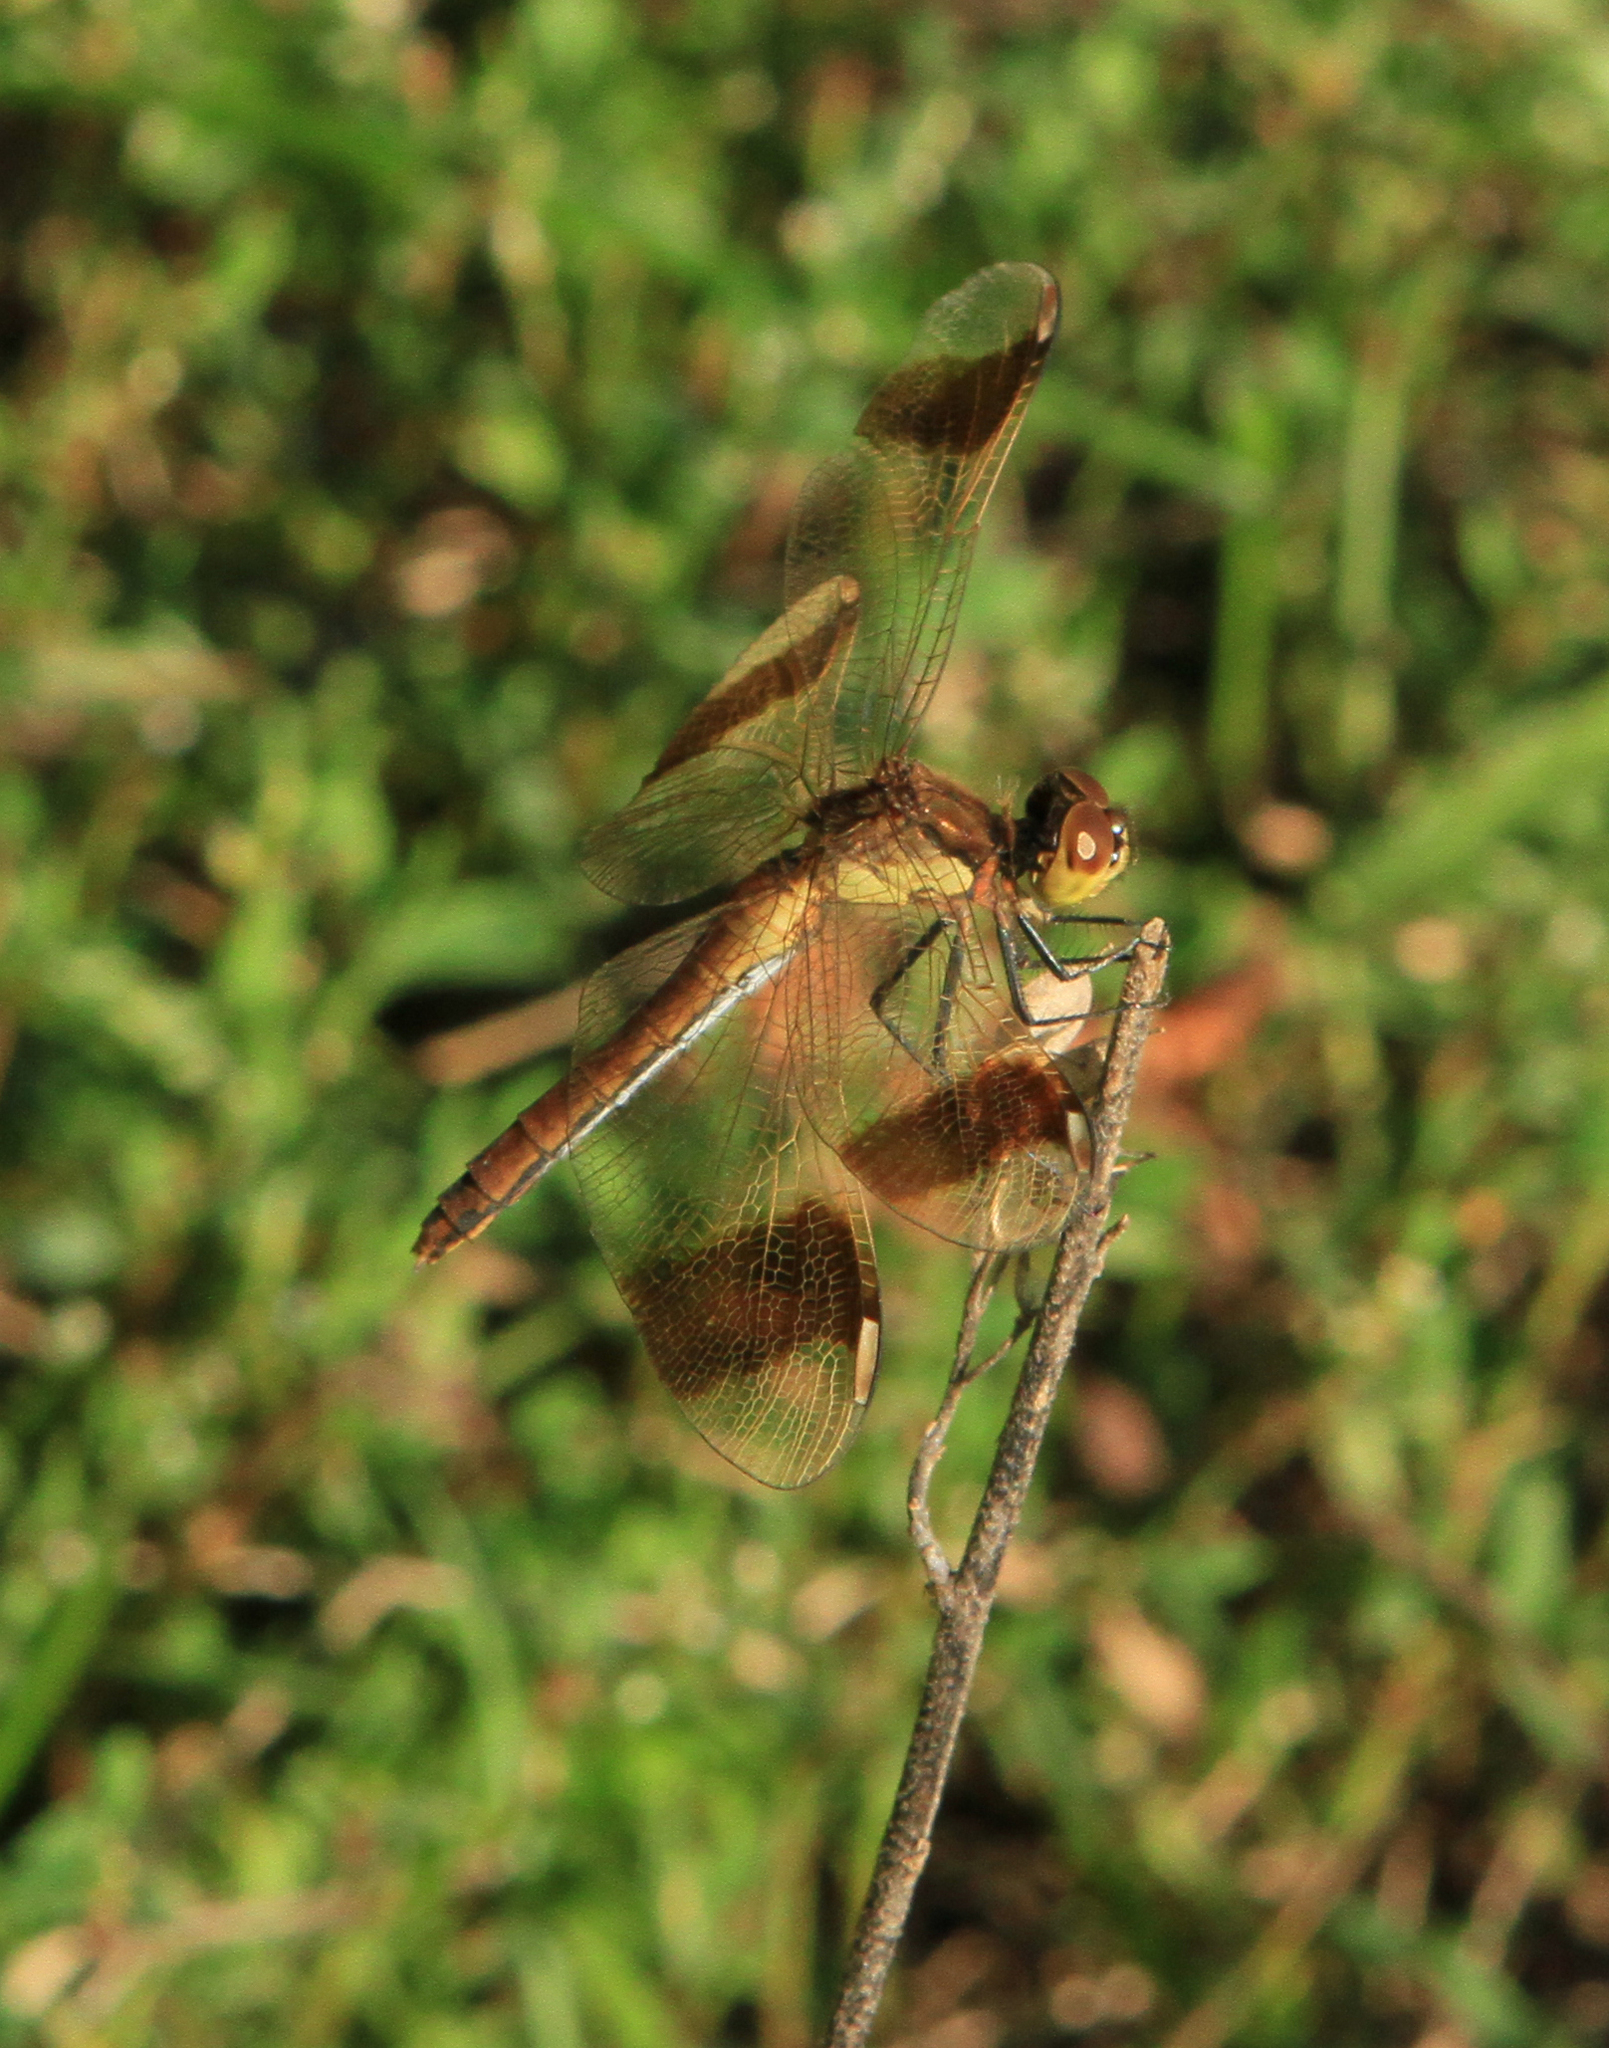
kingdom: Animalia
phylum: Arthropoda
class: Insecta
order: Odonata
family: Libellulidae
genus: Sympetrum
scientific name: Sympetrum pedemontanum
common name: Banded darter
